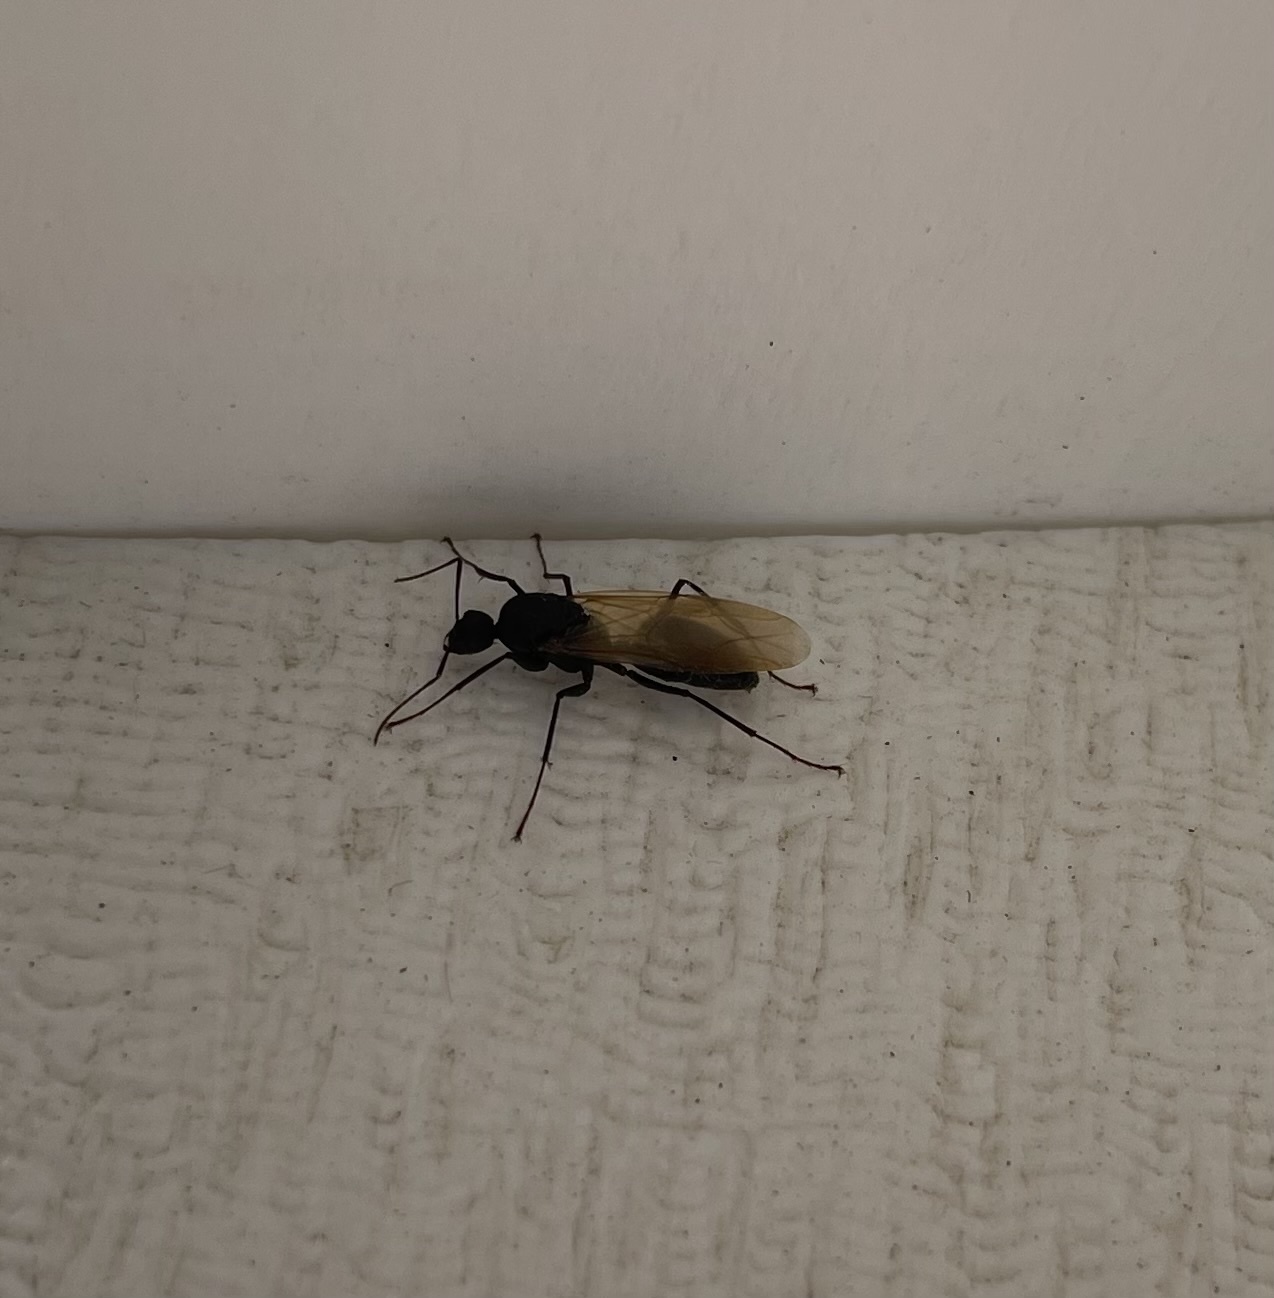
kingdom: Animalia
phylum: Arthropoda
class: Insecta
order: Hymenoptera
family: Formicidae
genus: Camponotus
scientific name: Camponotus pennsylvanicus
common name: Black carpenter ant
